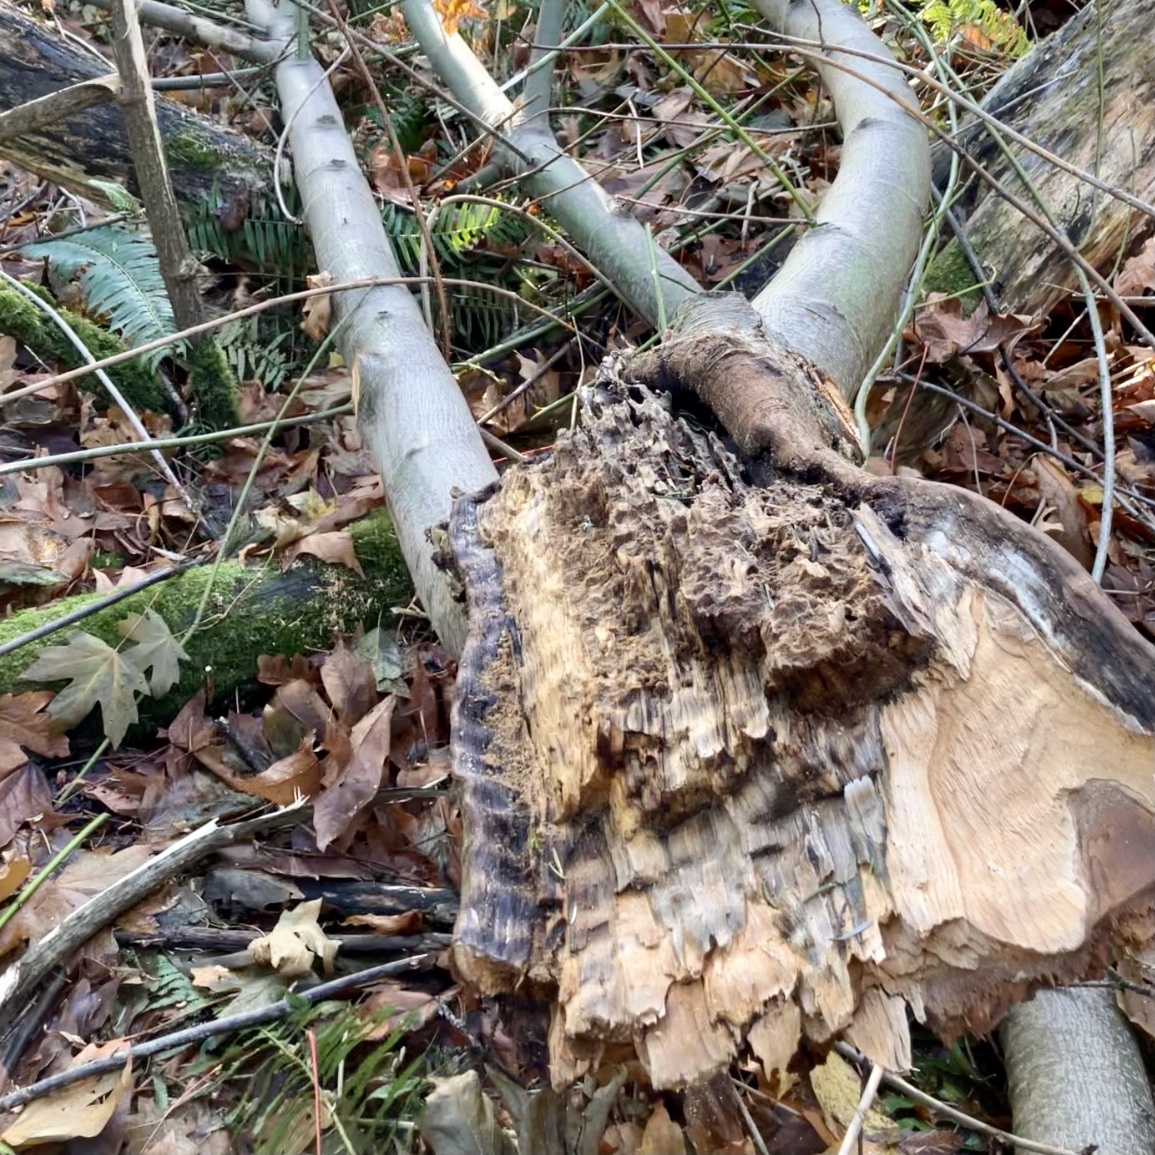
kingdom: Plantae
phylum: Tracheophyta
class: Magnoliopsida
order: Sapindales
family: Sapindaceae
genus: Acer
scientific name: Acer macrophyllum
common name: Oregon maple
